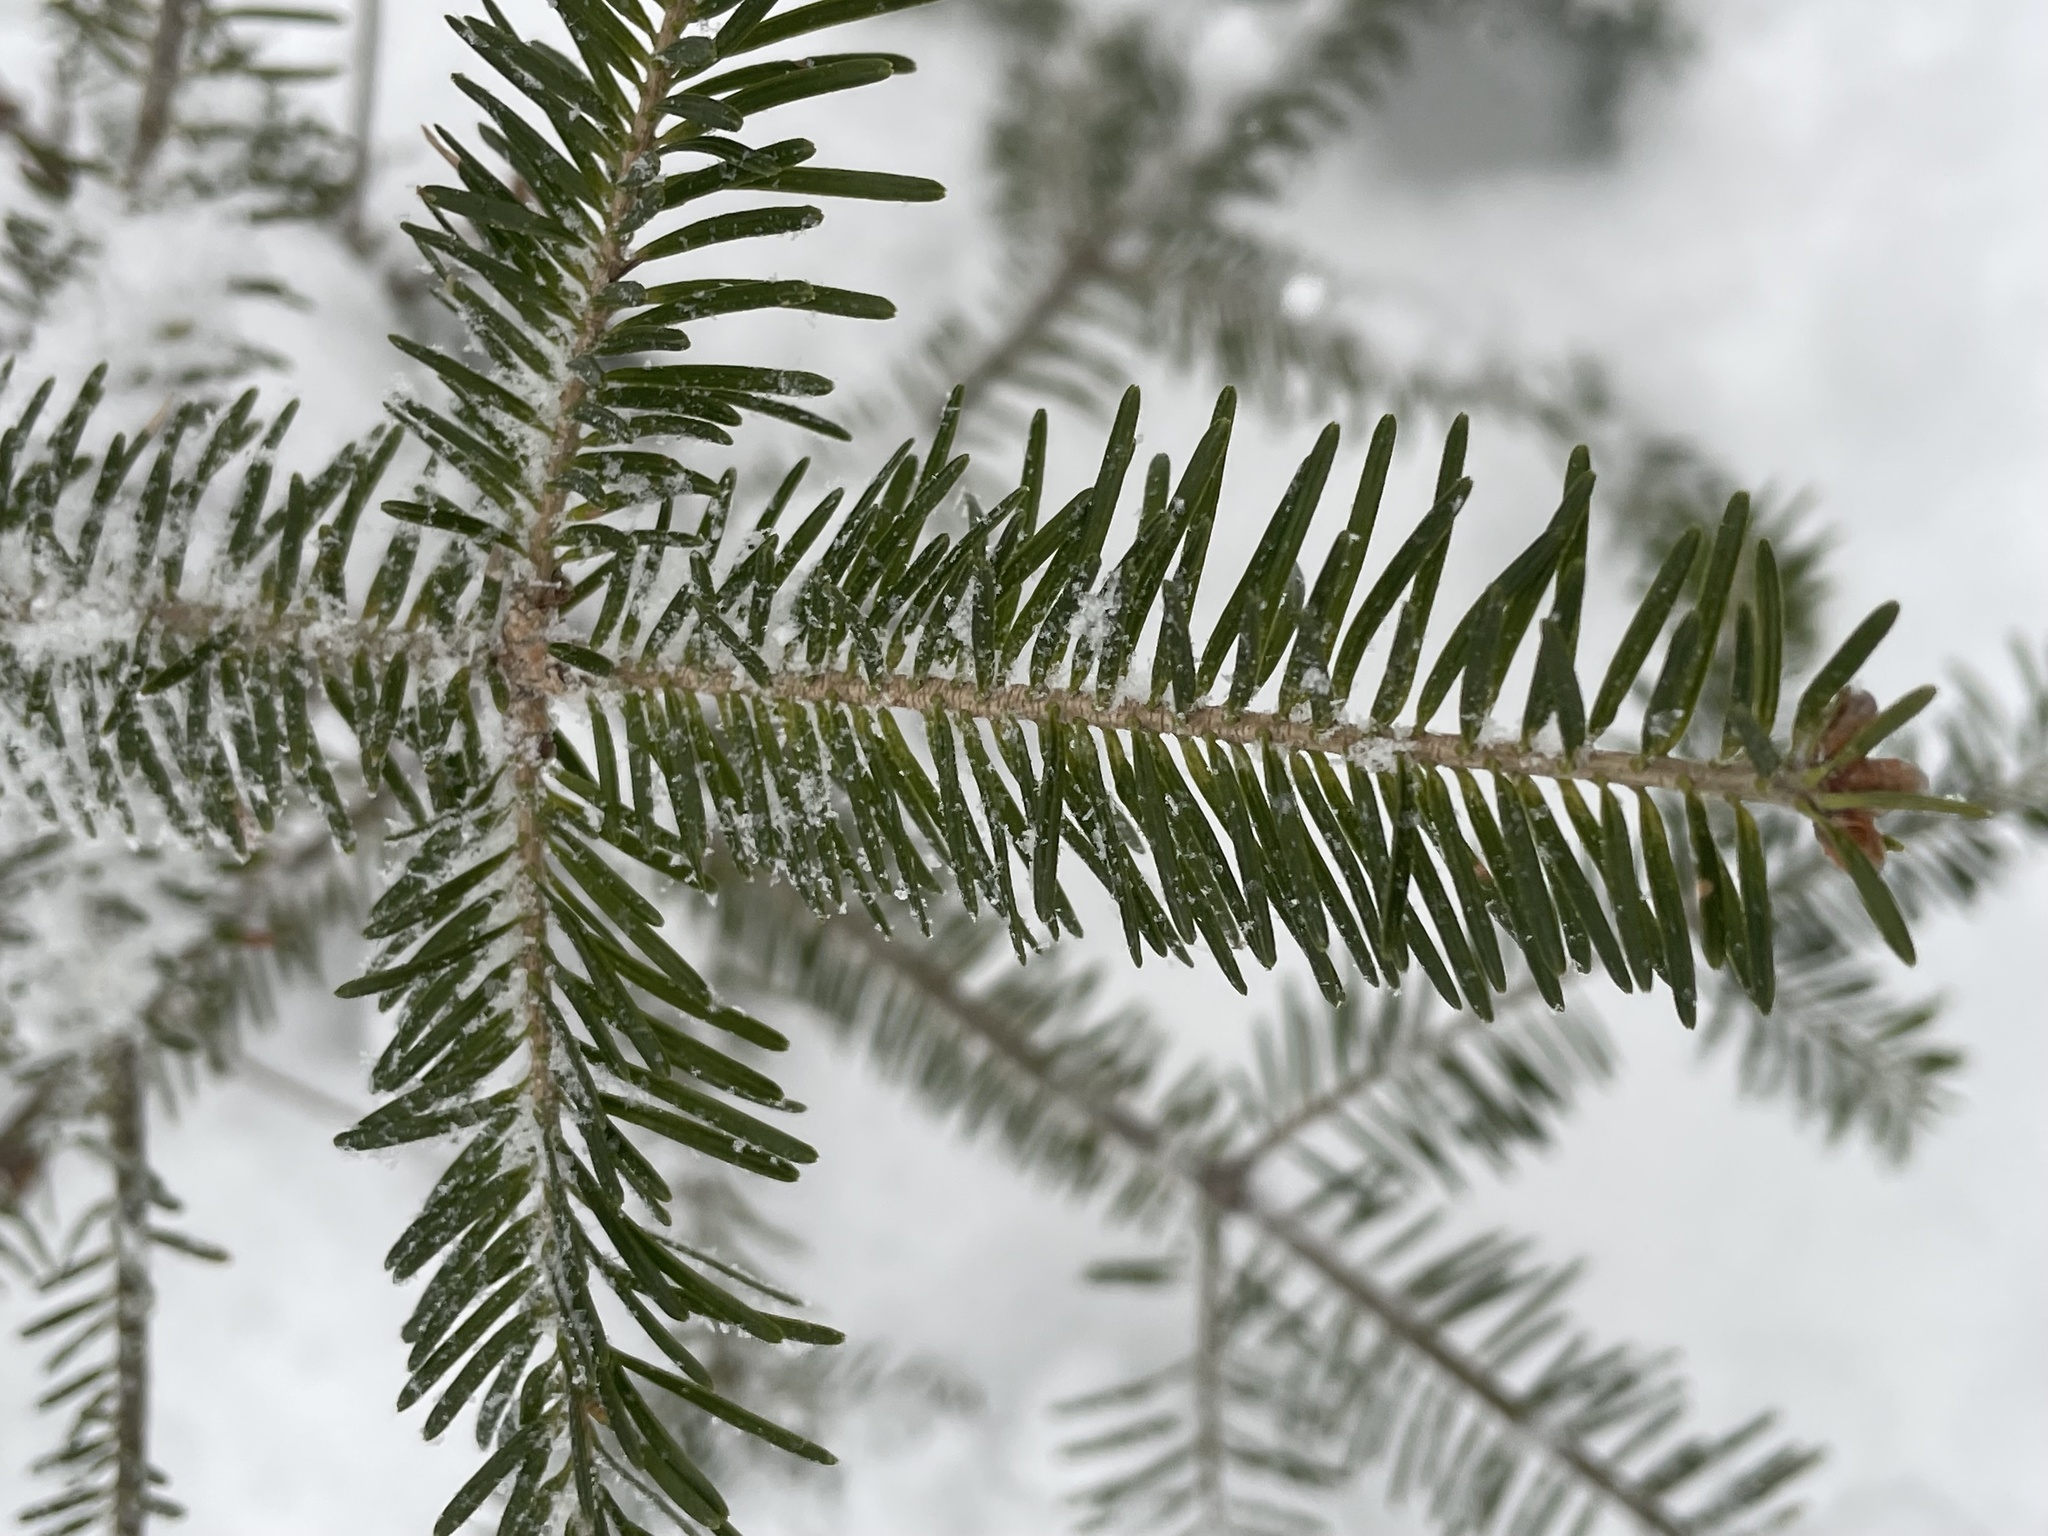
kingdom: Plantae
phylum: Tracheophyta
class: Pinopsida
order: Pinales
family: Pinaceae
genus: Abies
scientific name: Abies balsamea
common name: Balsam fir
